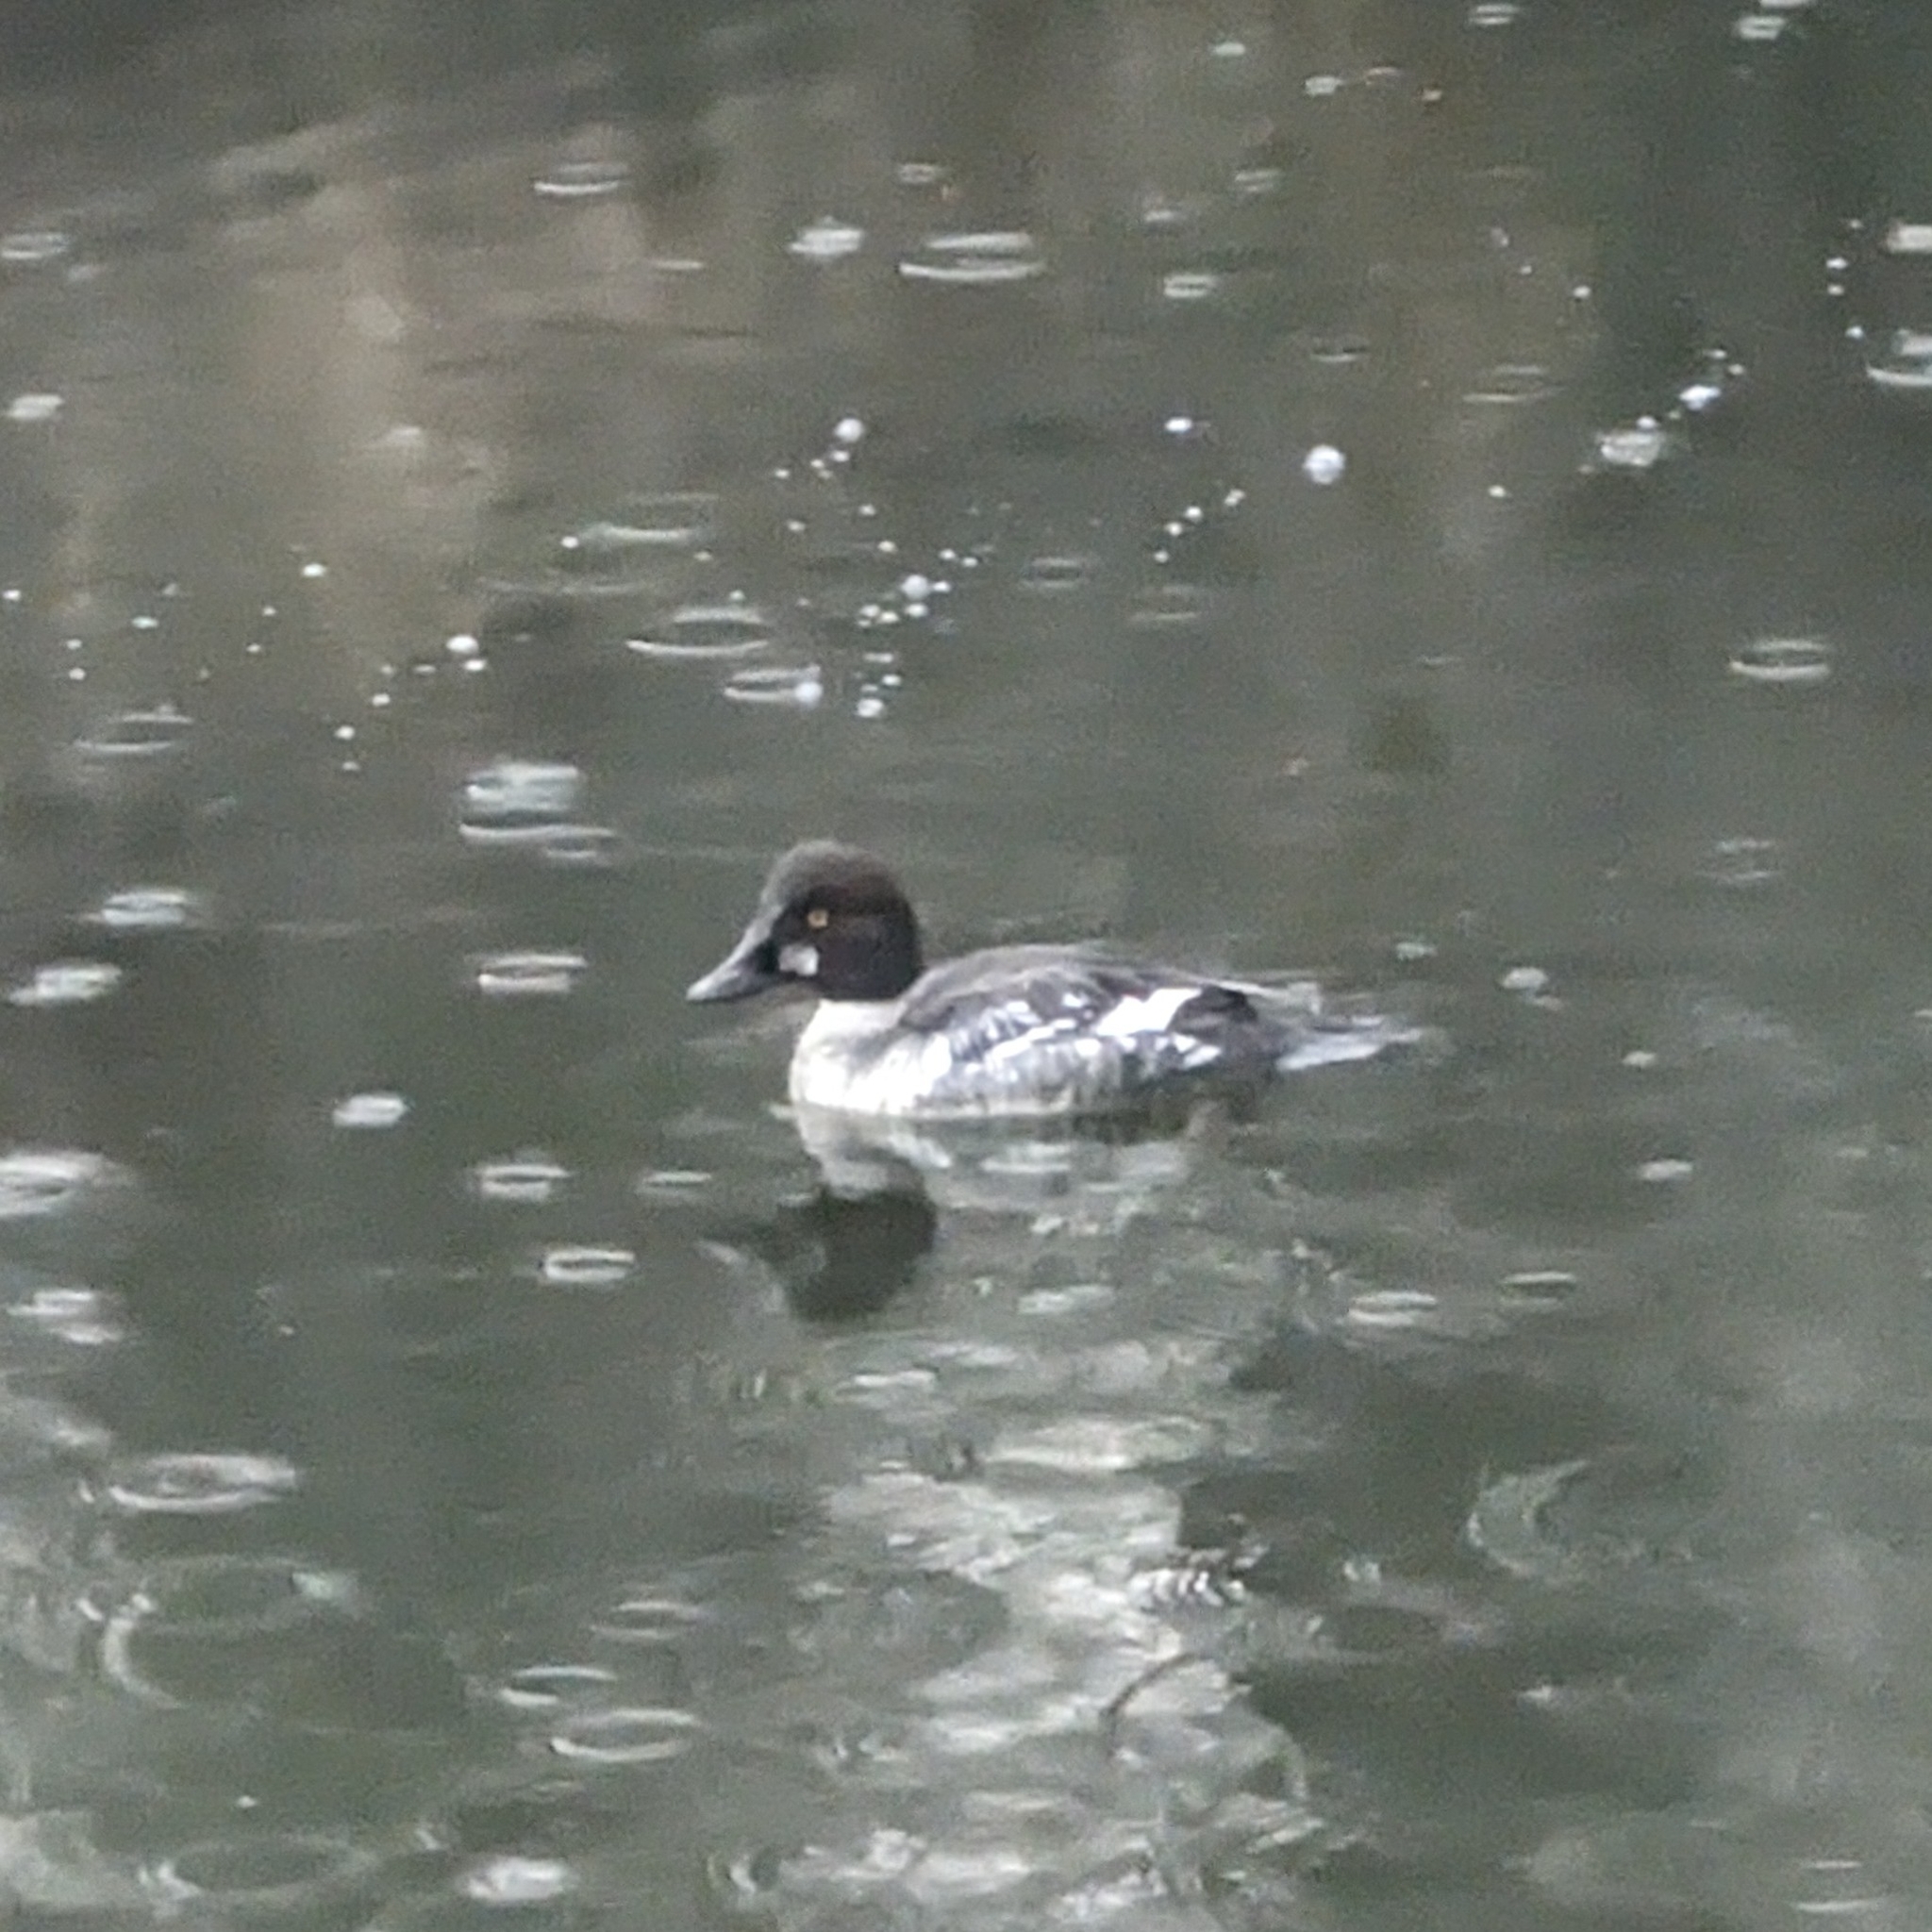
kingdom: Animalia
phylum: Chordata
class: Aves
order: Anseriformes
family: Anatidae
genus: Bucephala
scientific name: Bucephala clangula
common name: Common goldeneye
